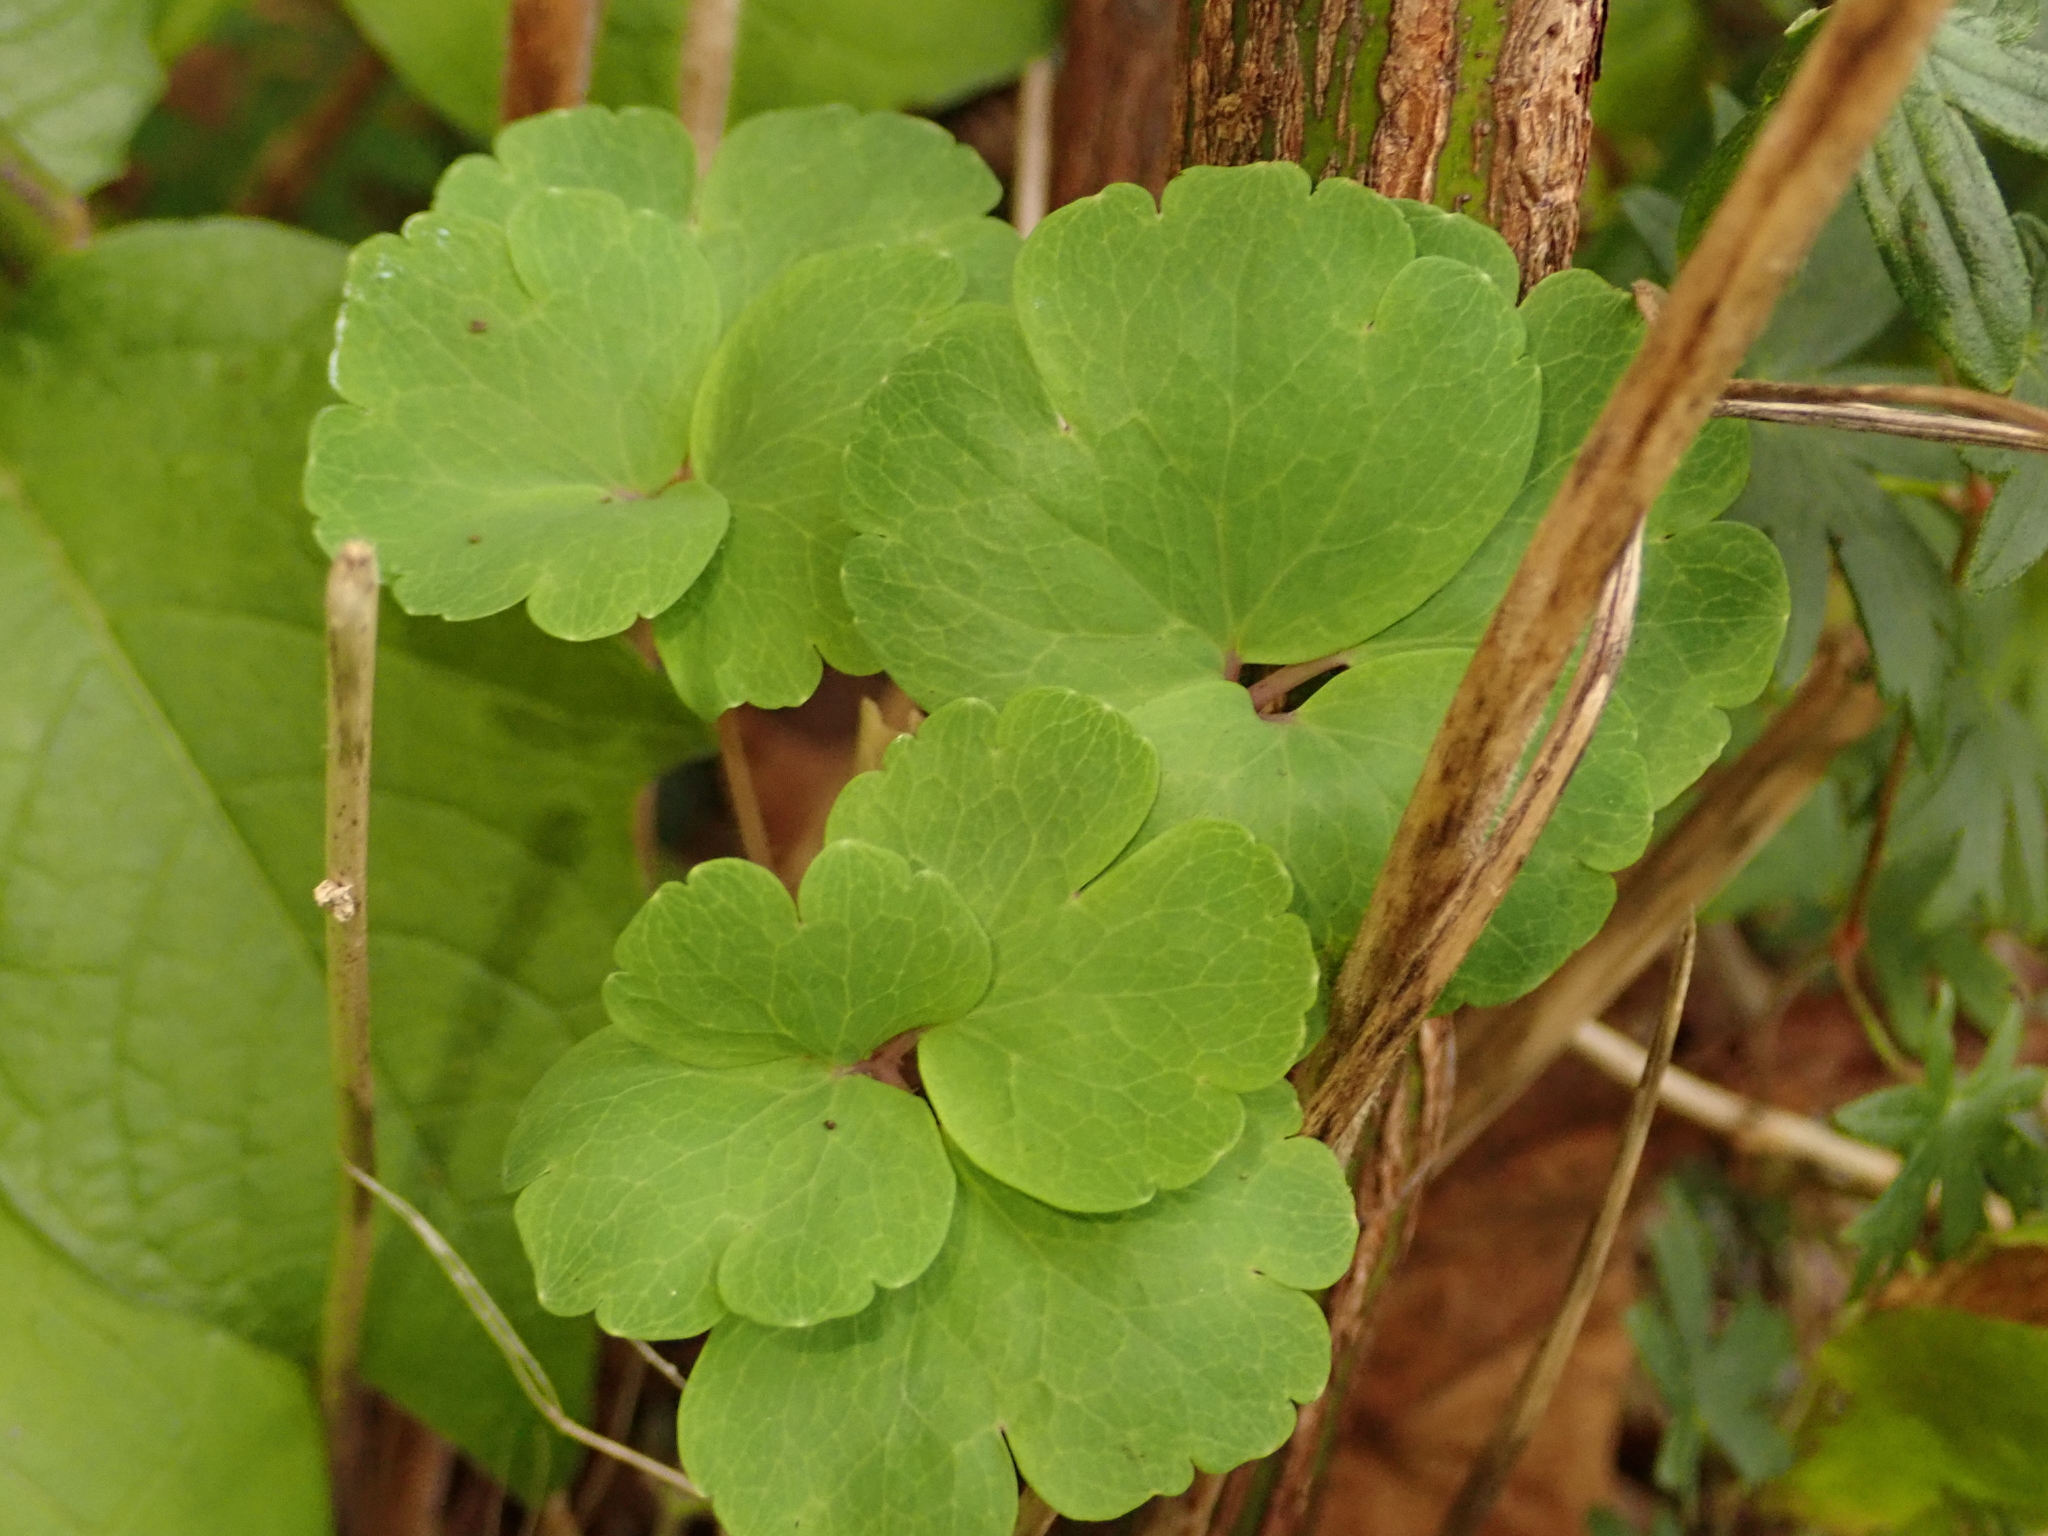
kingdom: Plantae
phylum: Tracheophyta
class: Magnoliopsida
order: Ranunculales
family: Ranunculaceae
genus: Aquilegia
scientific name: Aquilegia vulgaris
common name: Columbine
